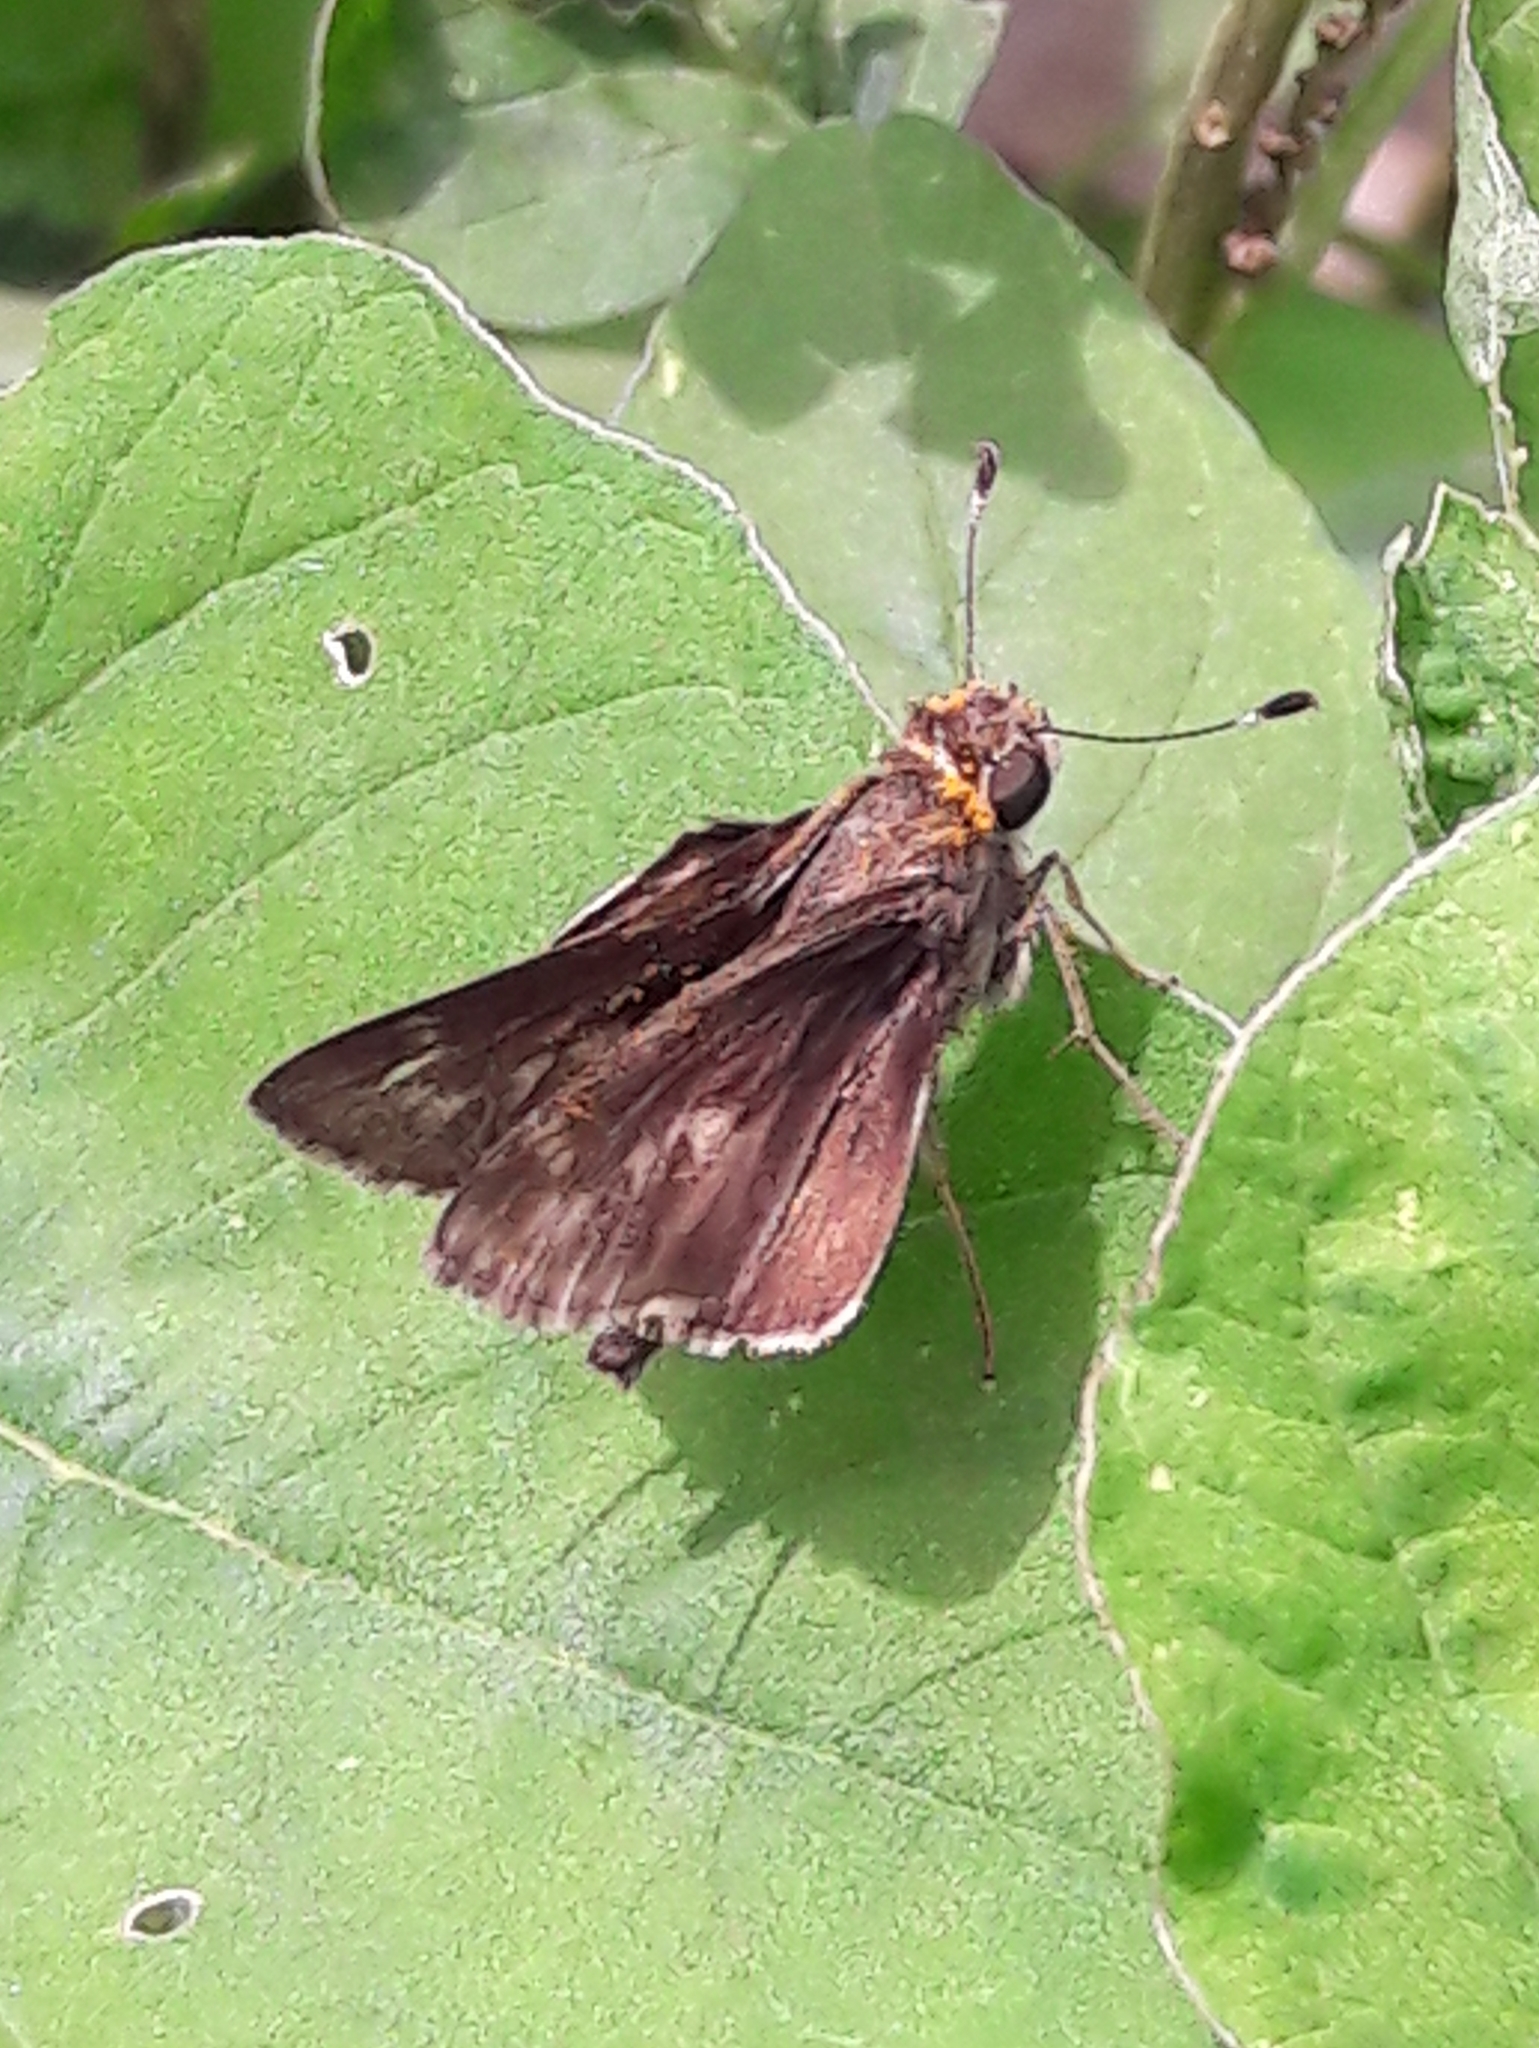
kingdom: Animalia
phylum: Arthropoda
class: Insecta
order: Lepidoptera
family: Hesperiidae
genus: Pompeius
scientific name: Pompeius pompeius
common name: Pompeius skipper
